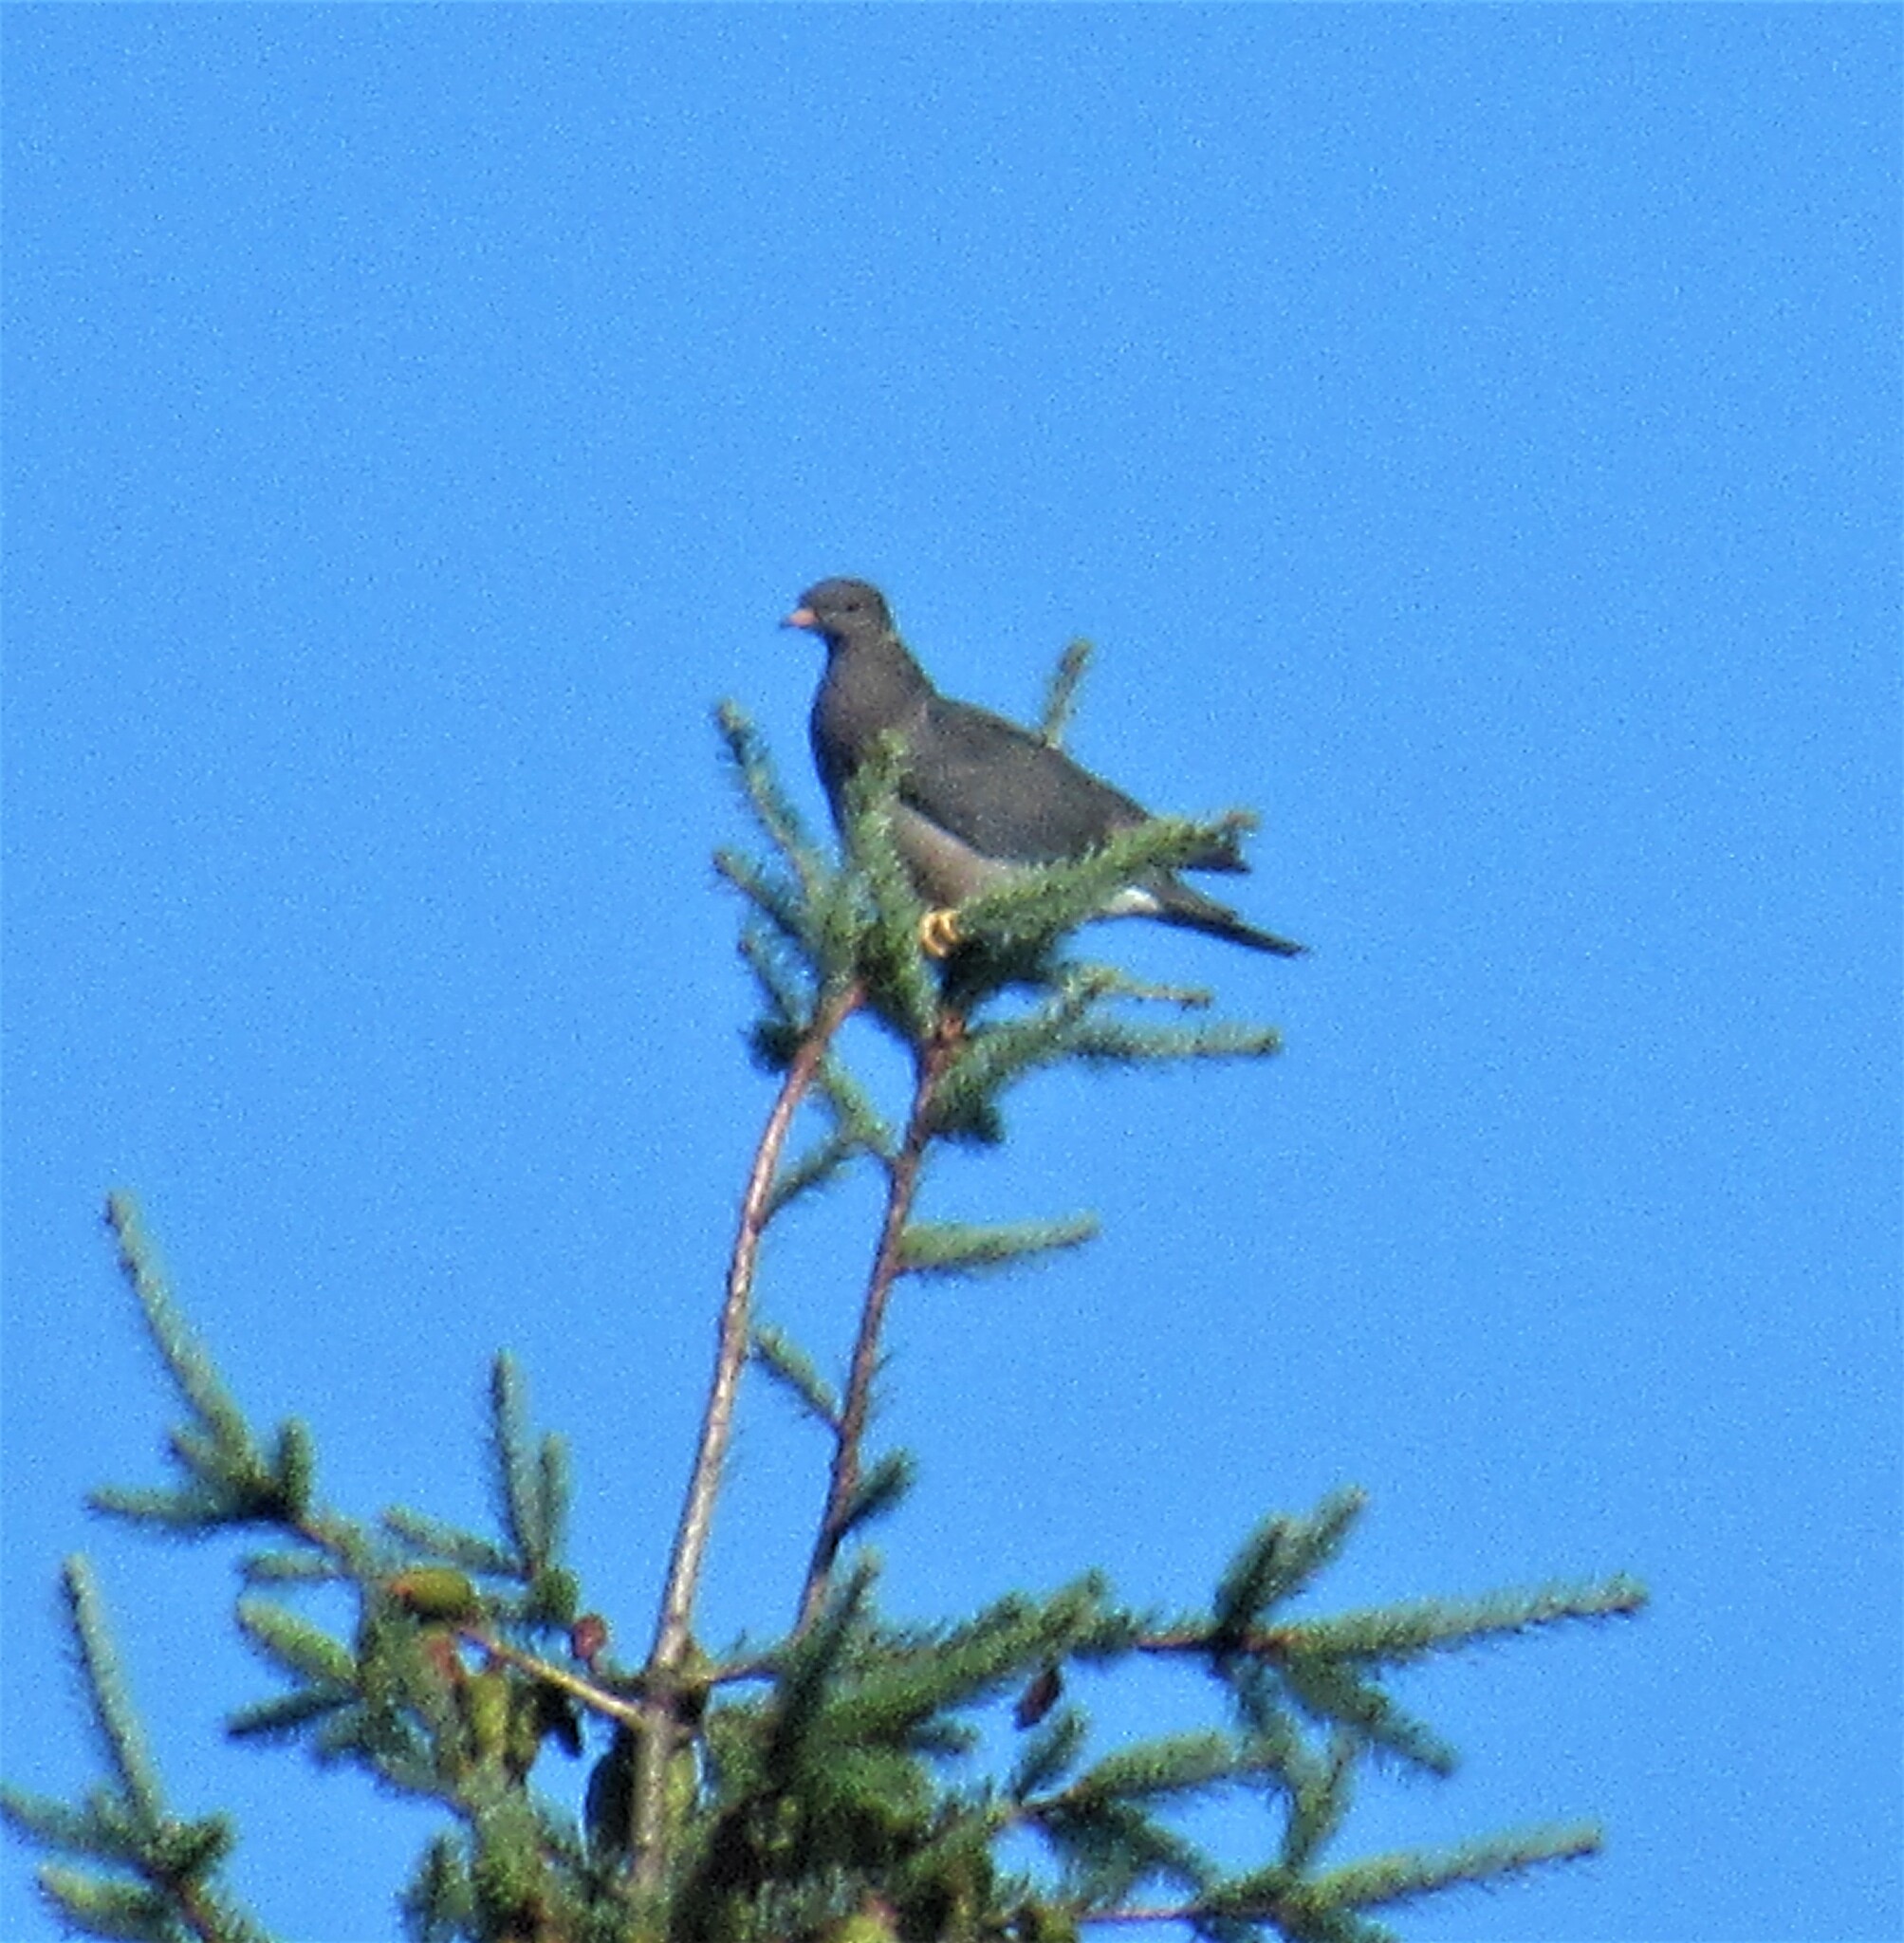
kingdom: Animalia
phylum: Chordata
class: Aves
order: Columbiformes
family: Columbidae
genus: Patagioenas
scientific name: Patagioenas fasciata
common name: Band-tailed pigeon
